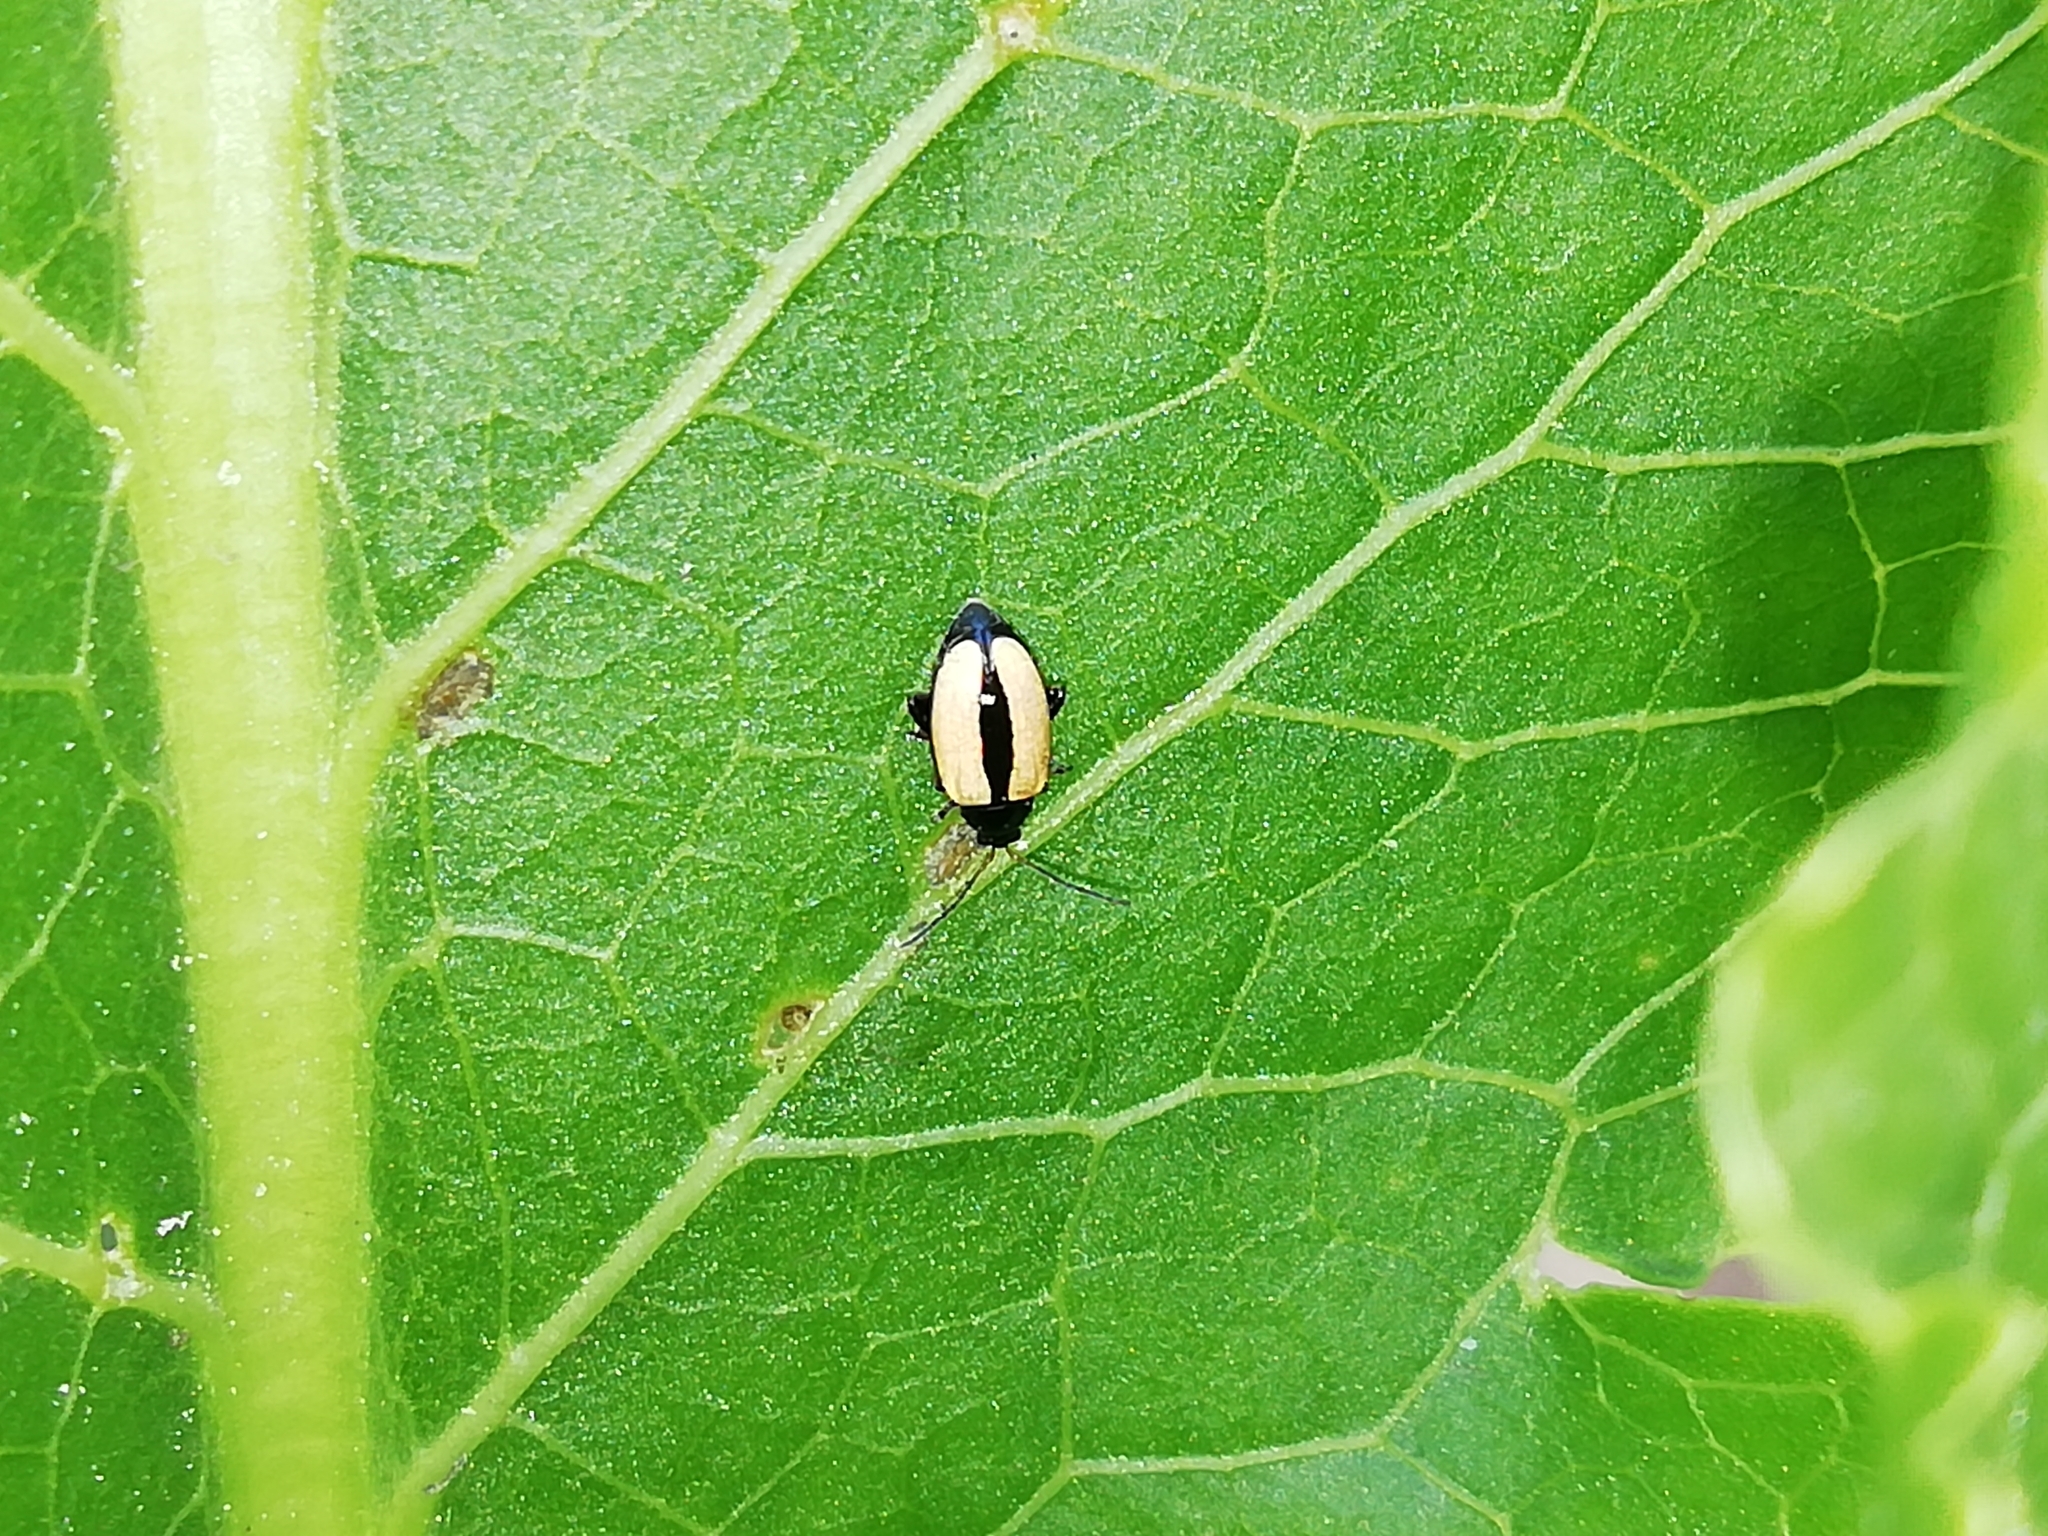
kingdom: Animalia
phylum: Arthropoda
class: Insecta
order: Coleoptera
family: Chrysomelidae
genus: Phyllotreta
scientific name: Phyllotreta armoraciae
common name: Horseradish flea beetle
